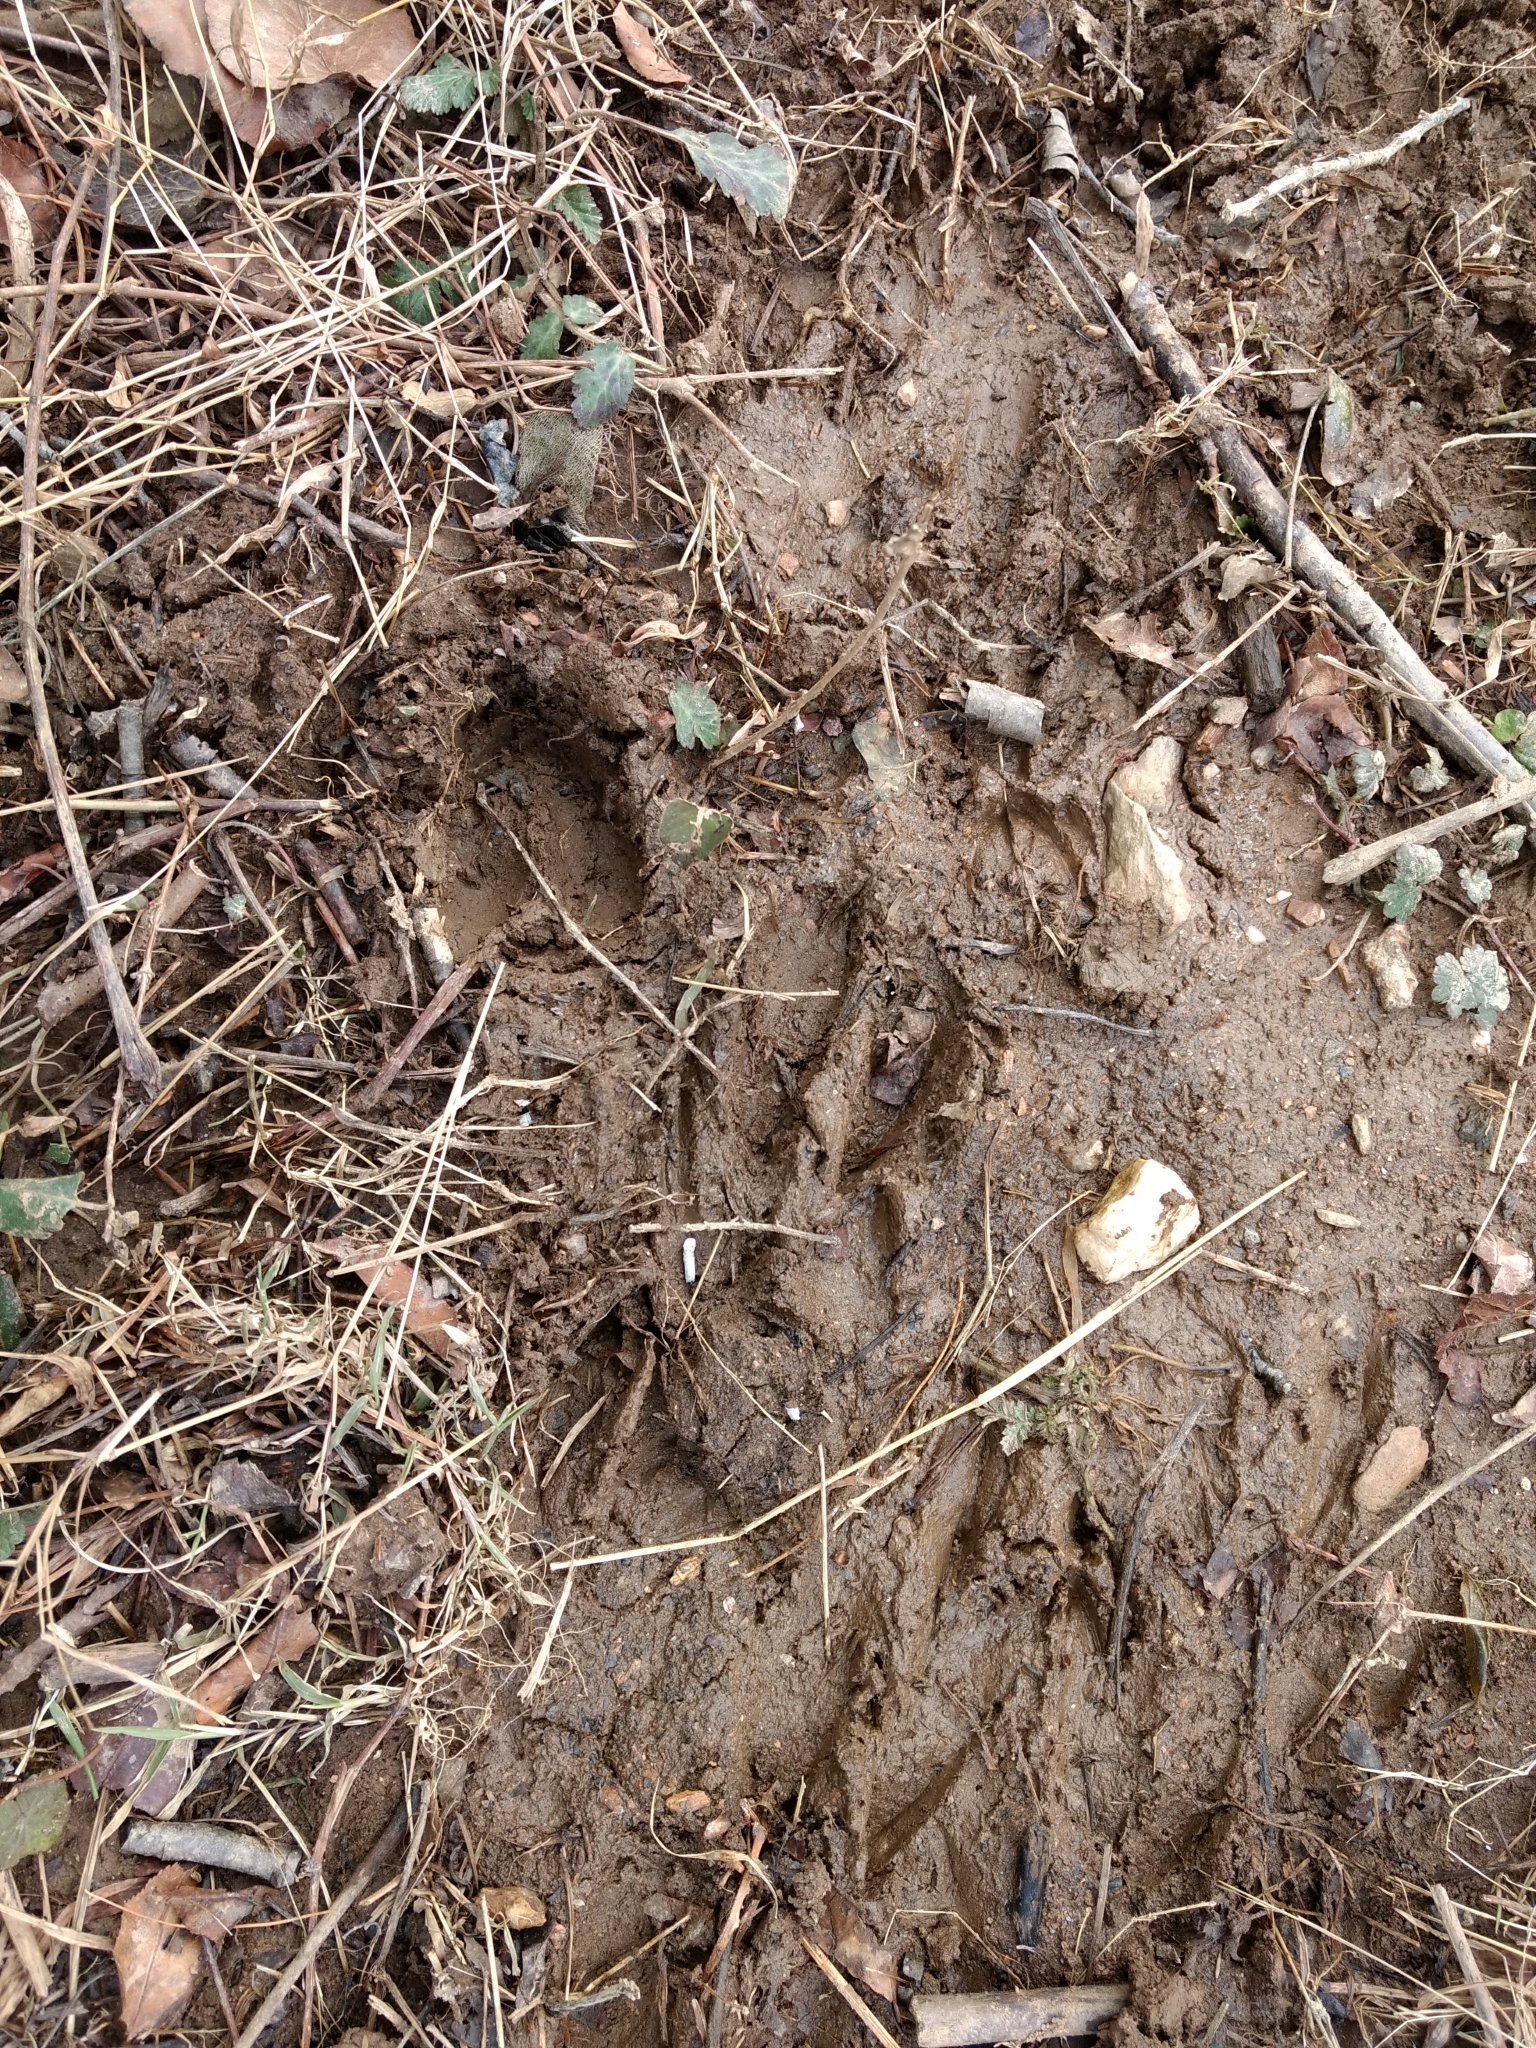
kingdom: Animalia
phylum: Chordata
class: Mammalia
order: Artiodactyla
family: Cervidae
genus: Odocoileus
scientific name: Odocoileus virginianus
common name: White-tailed deer
